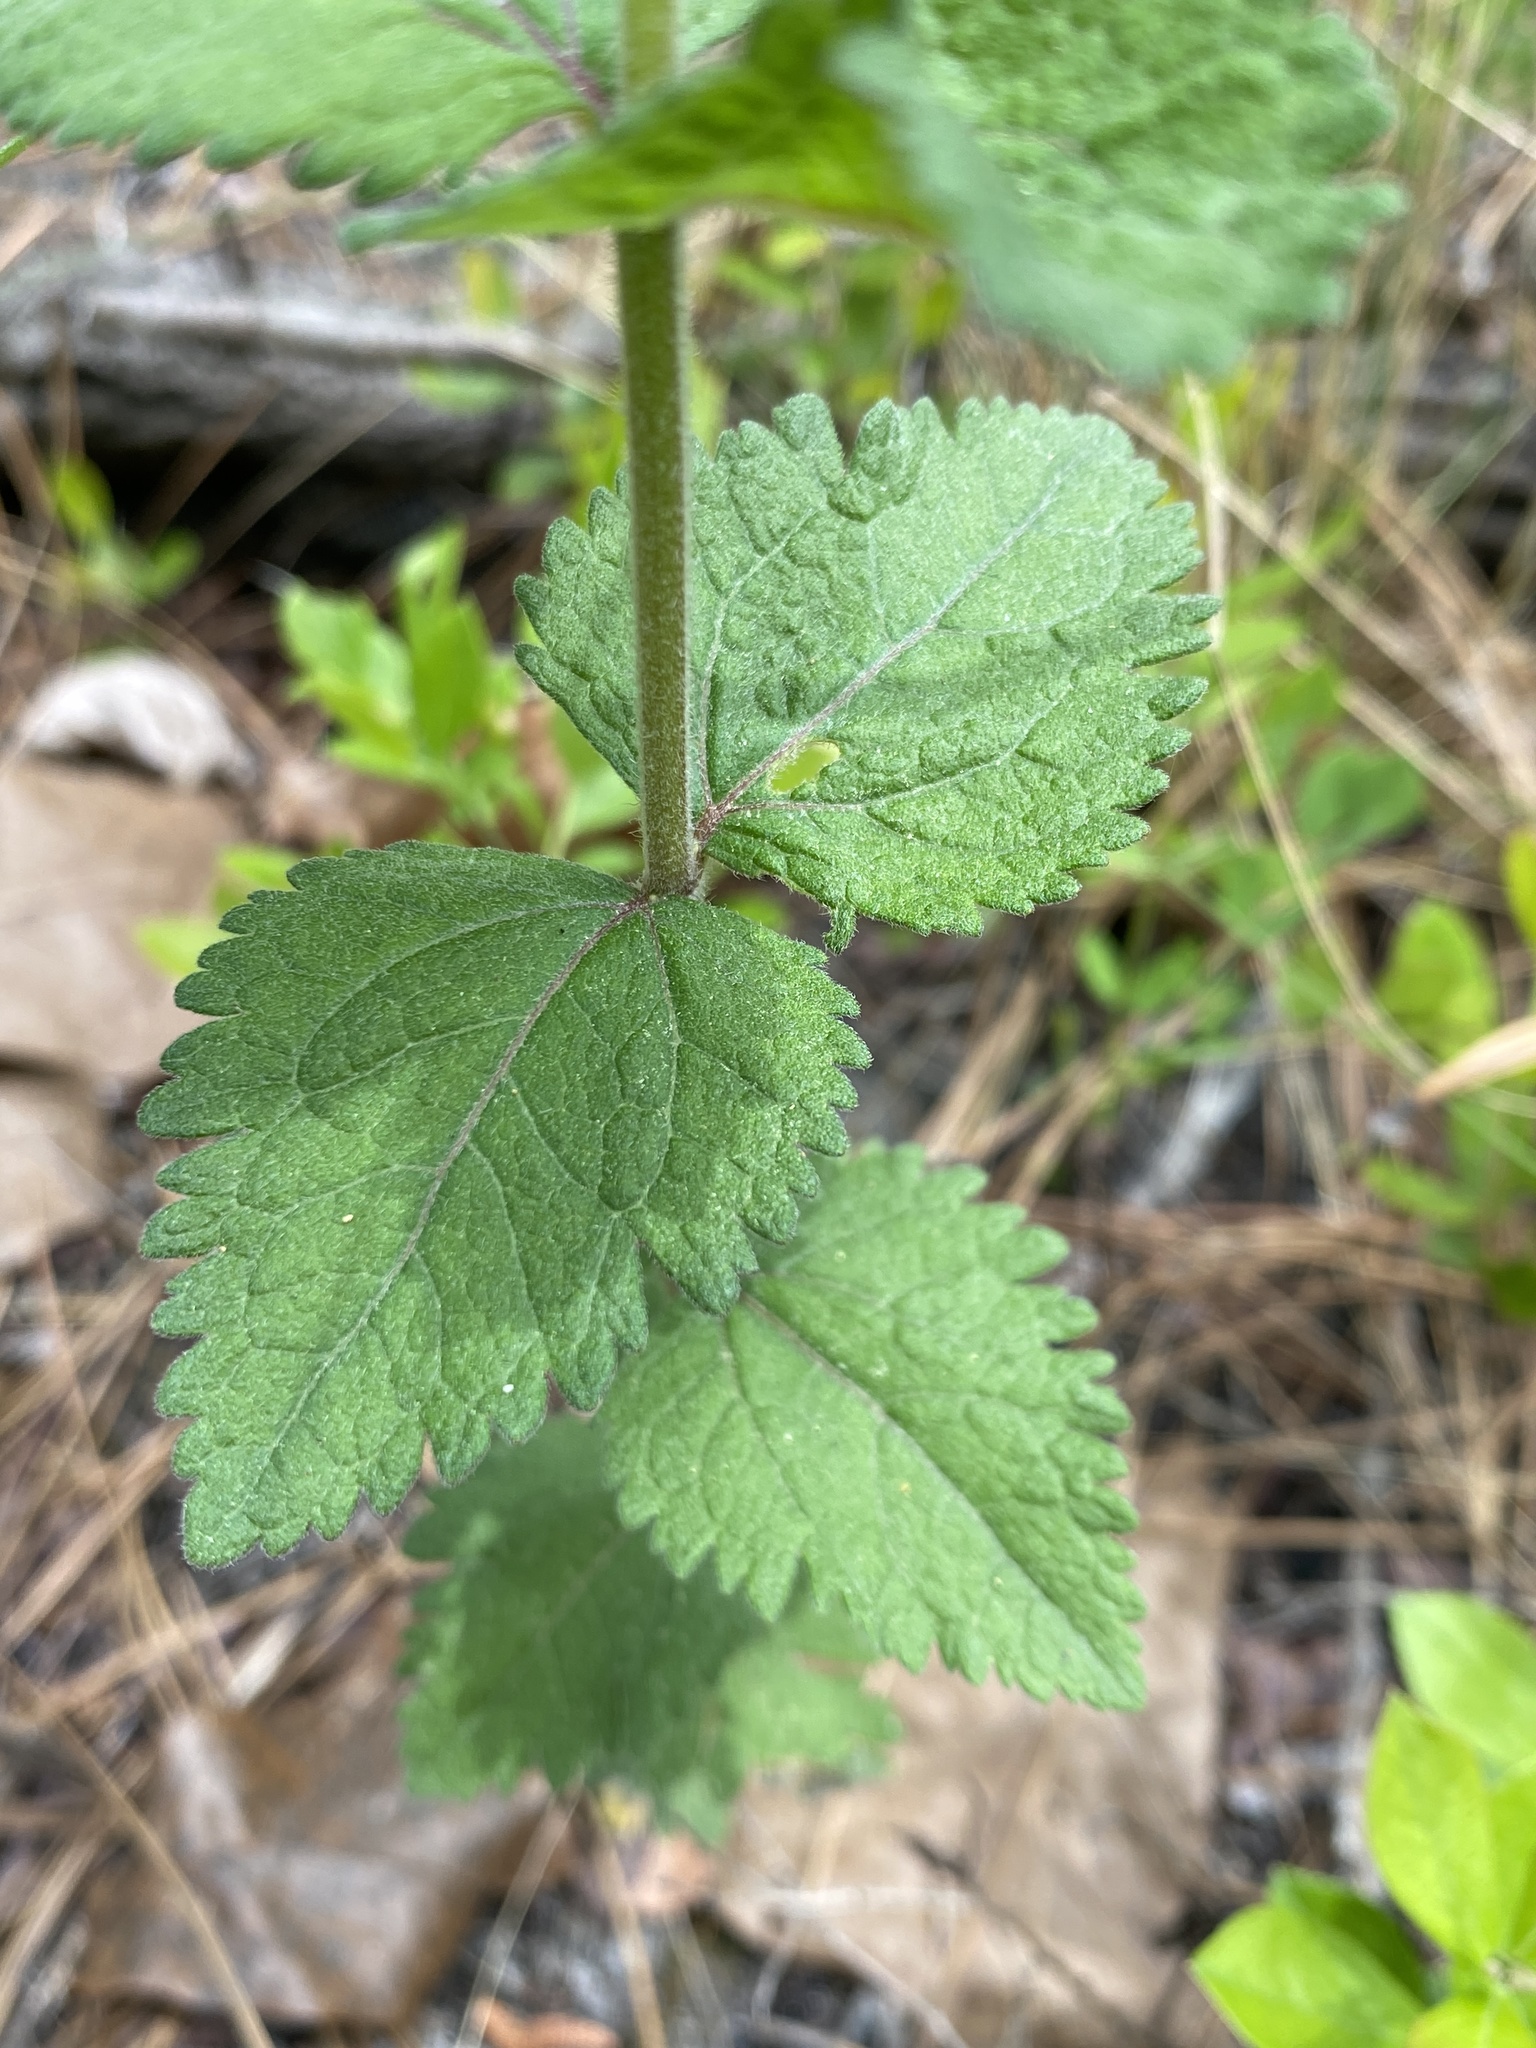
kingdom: Plantae
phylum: Tracheophyta
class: Magnoliopsida
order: Asterales
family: Asteraceae
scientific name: Asteraceae
